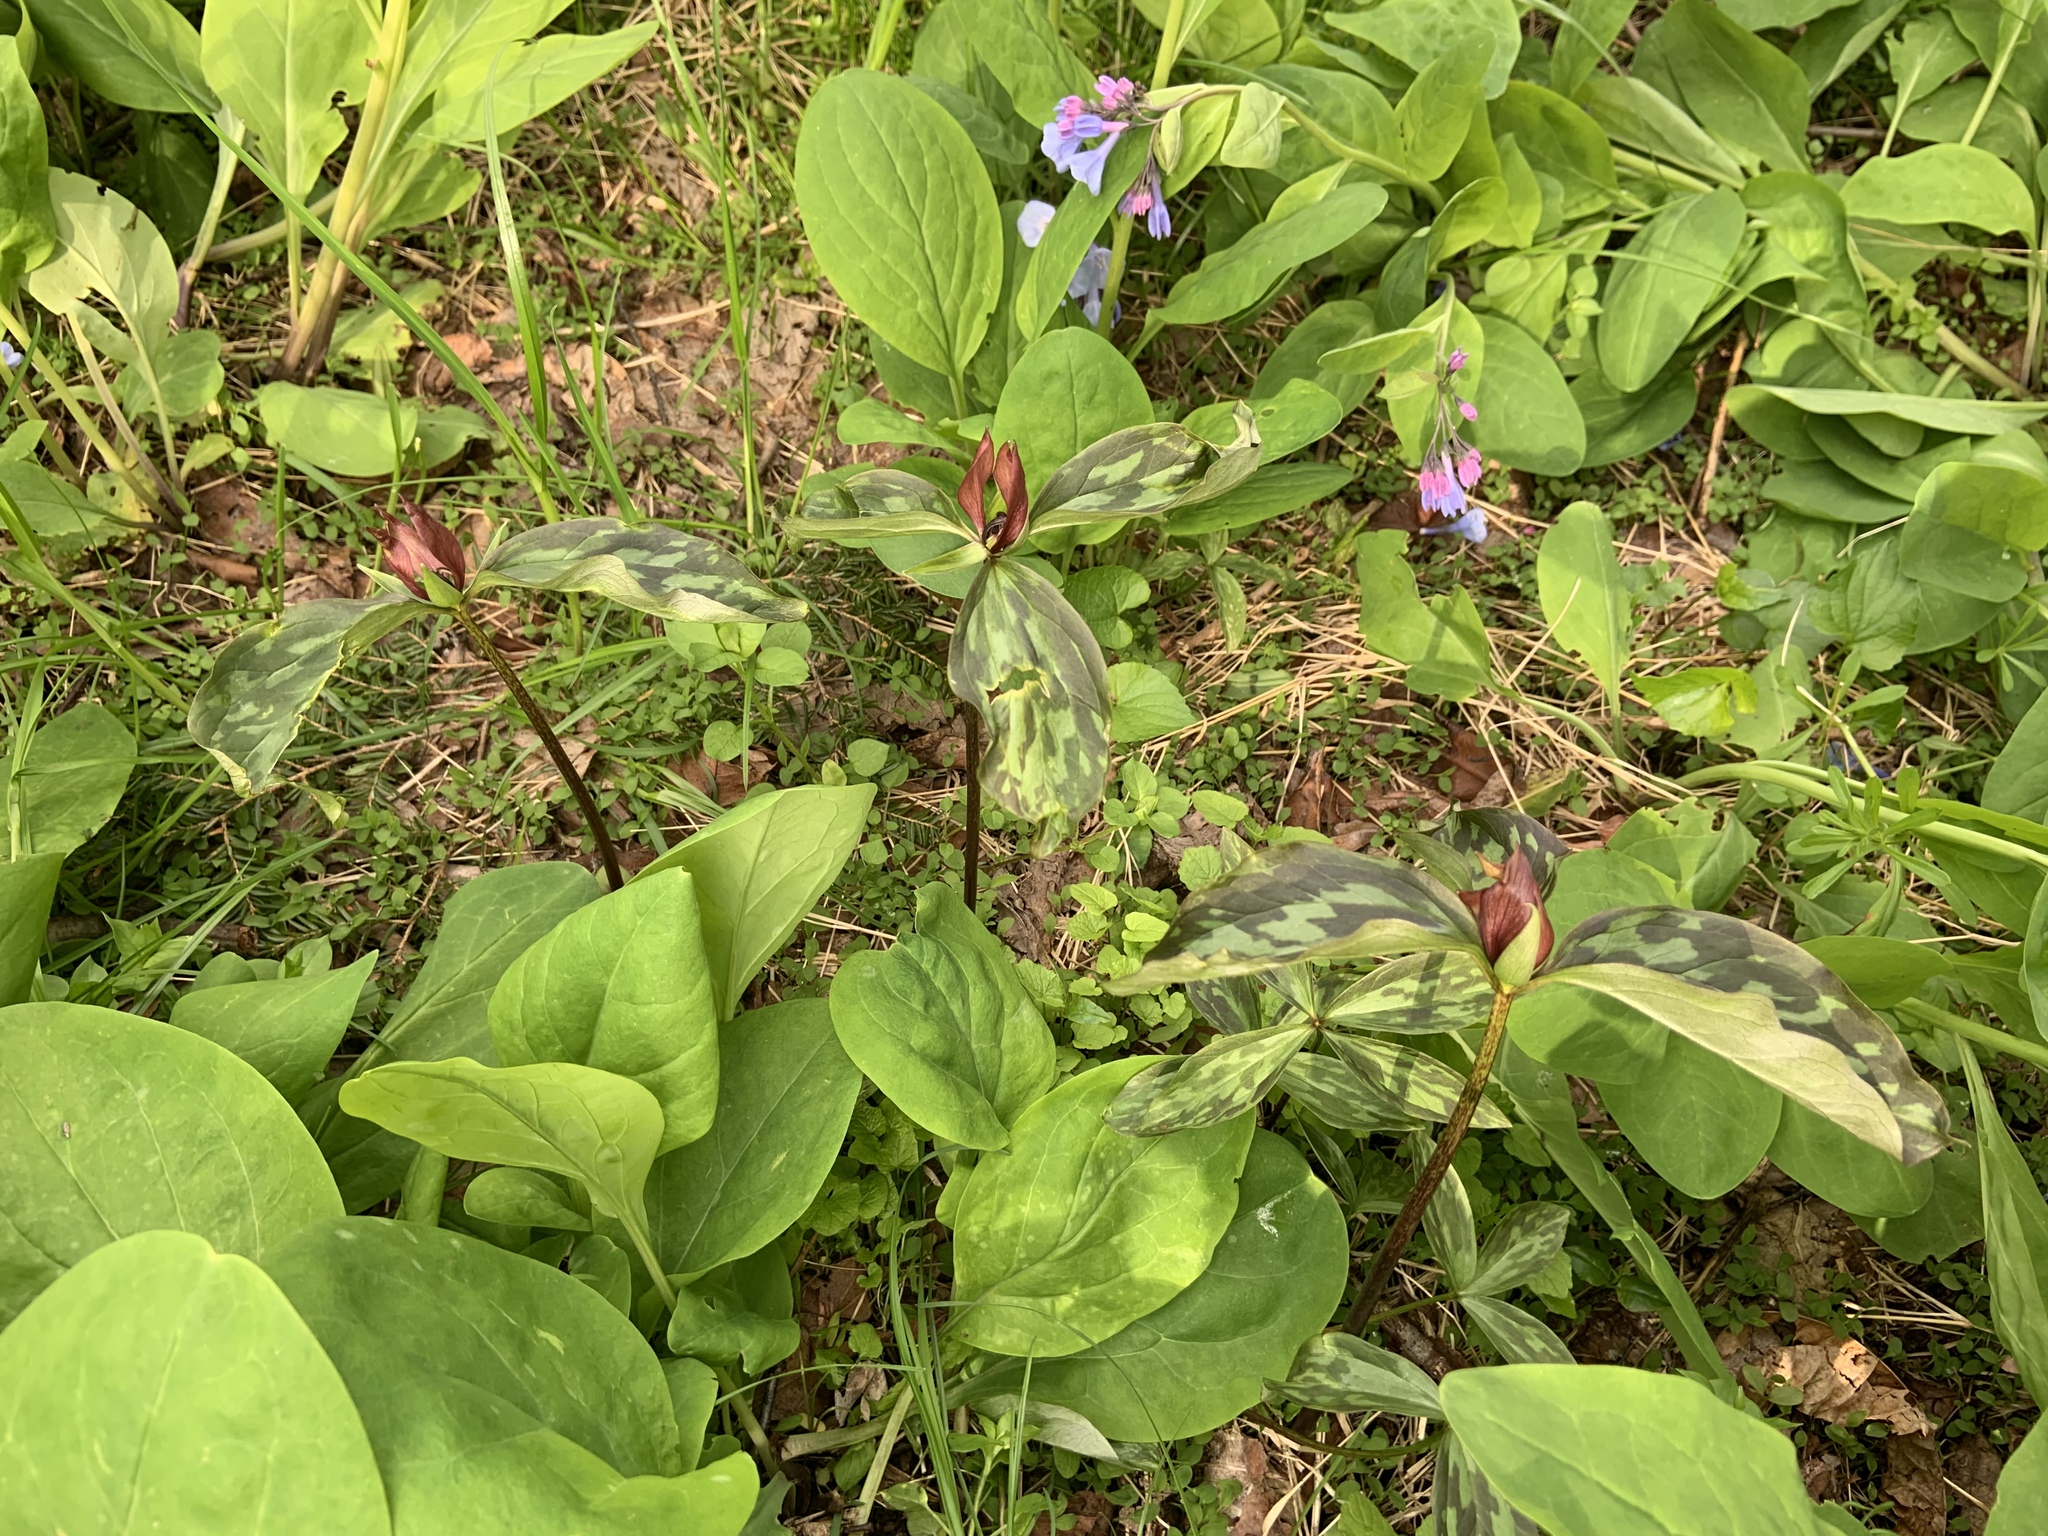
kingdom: Plantae
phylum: Tracheophyta
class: Liliopsida
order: Liliales
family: Melanthiaceae
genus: Trillium
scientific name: Trillium recurvatum
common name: Bloody butcher
